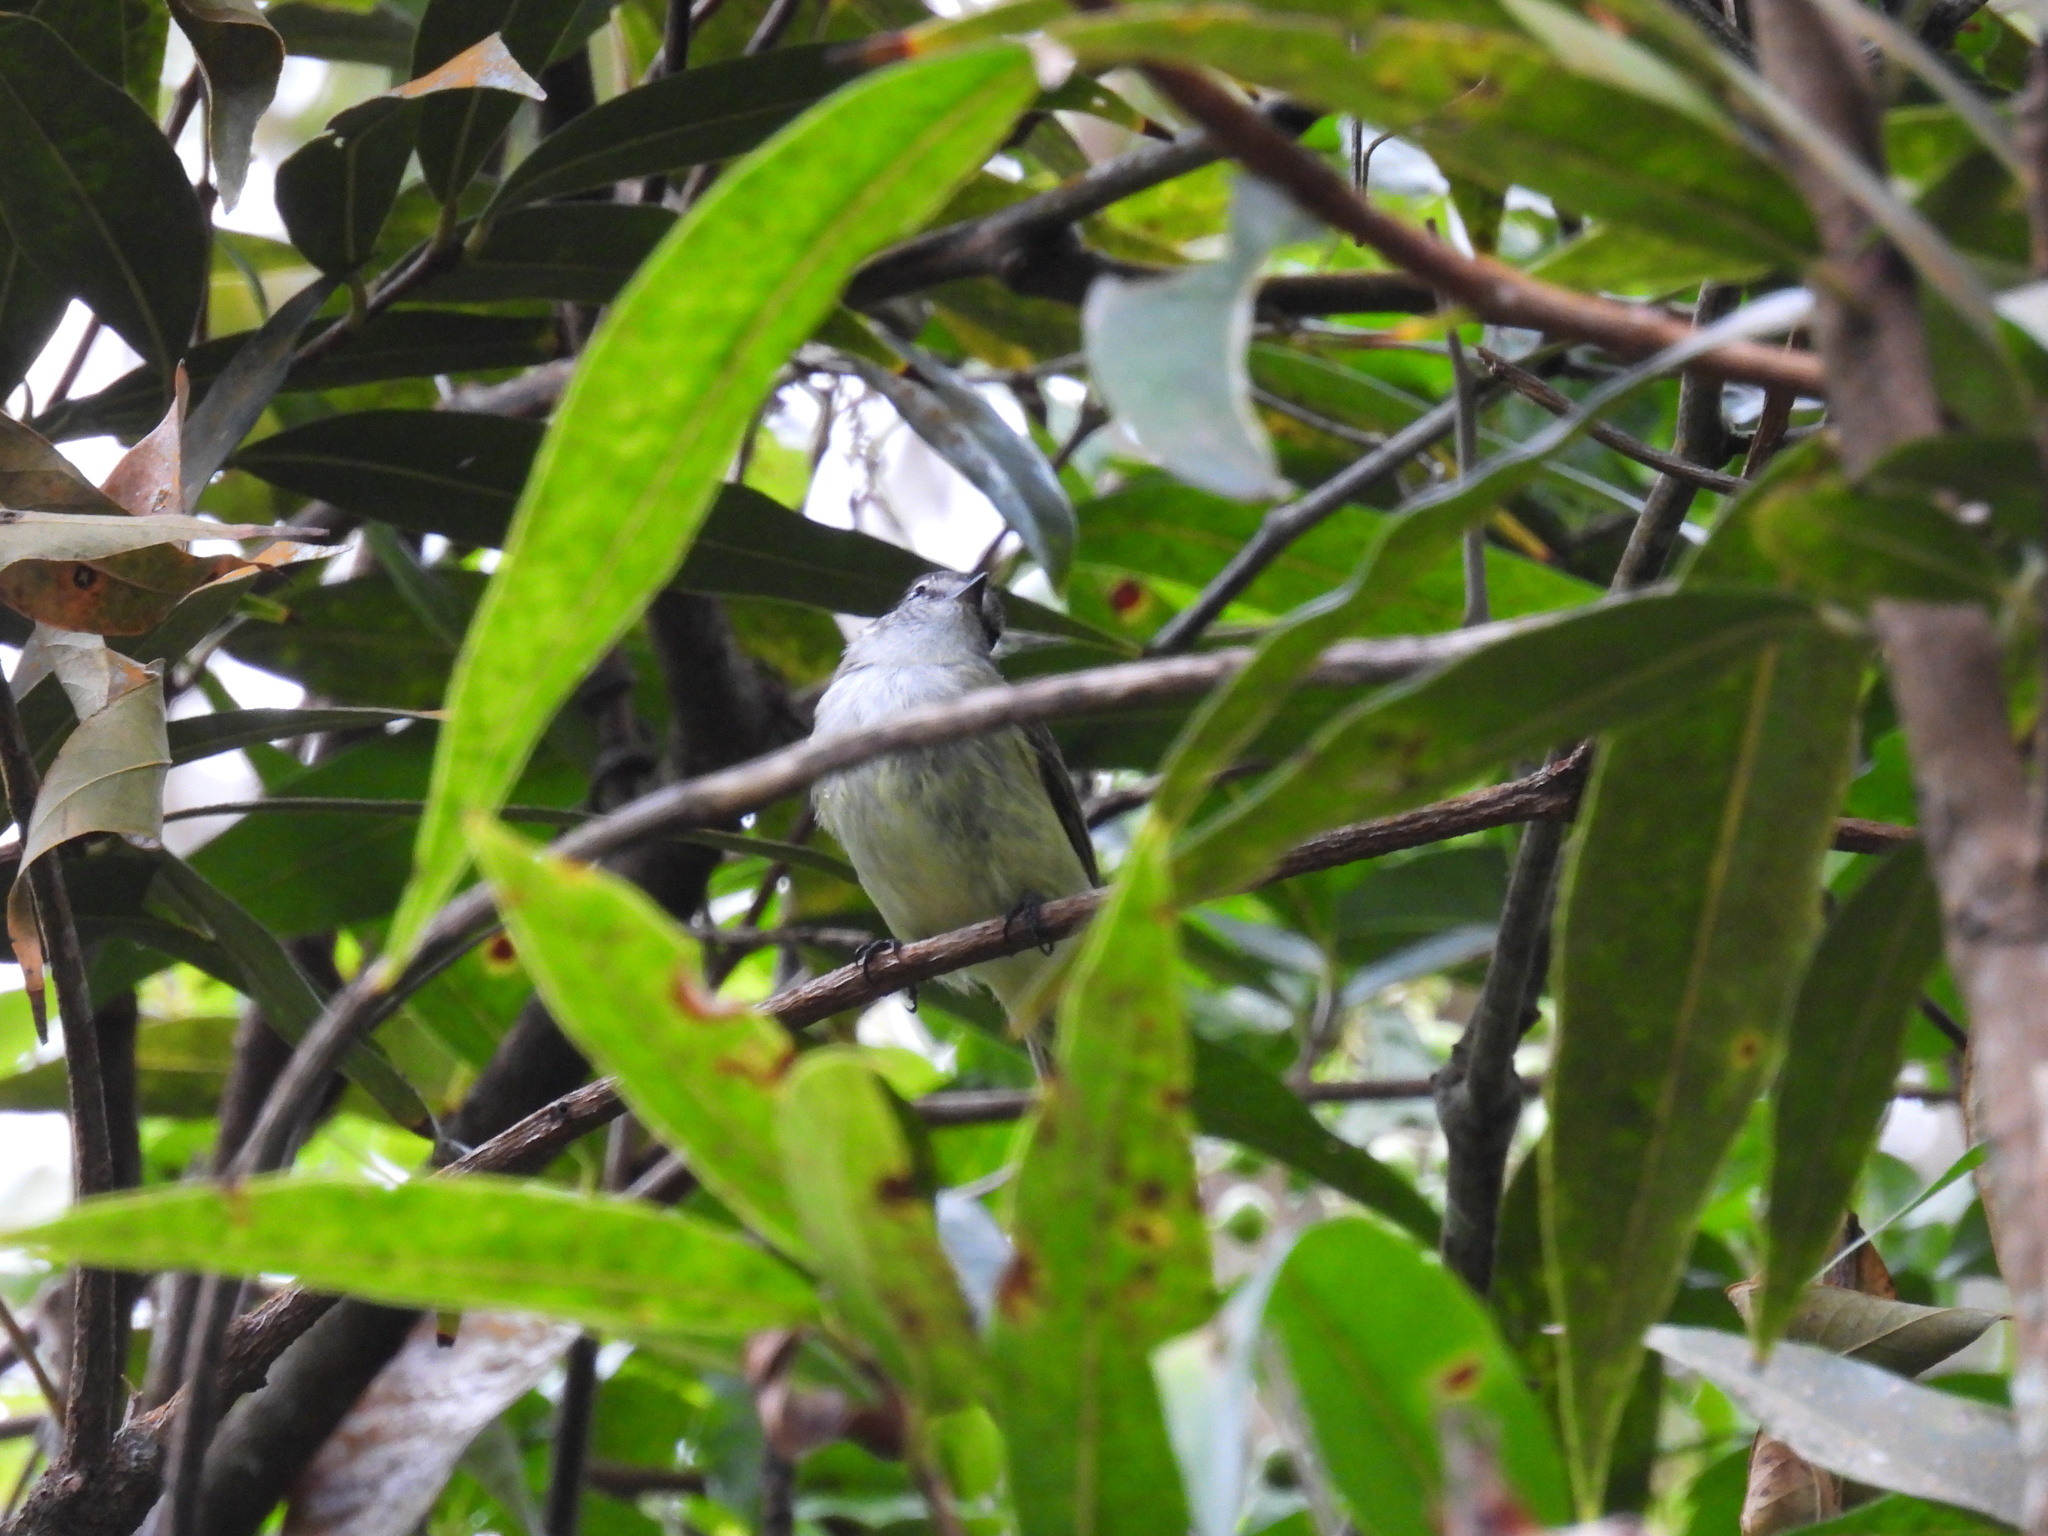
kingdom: Animalia
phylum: Chordata
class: Aves
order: Passeriformes
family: Tyrannidae
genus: Myiopagis
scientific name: Myiopagis cotta
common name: Jamaican elaenia
